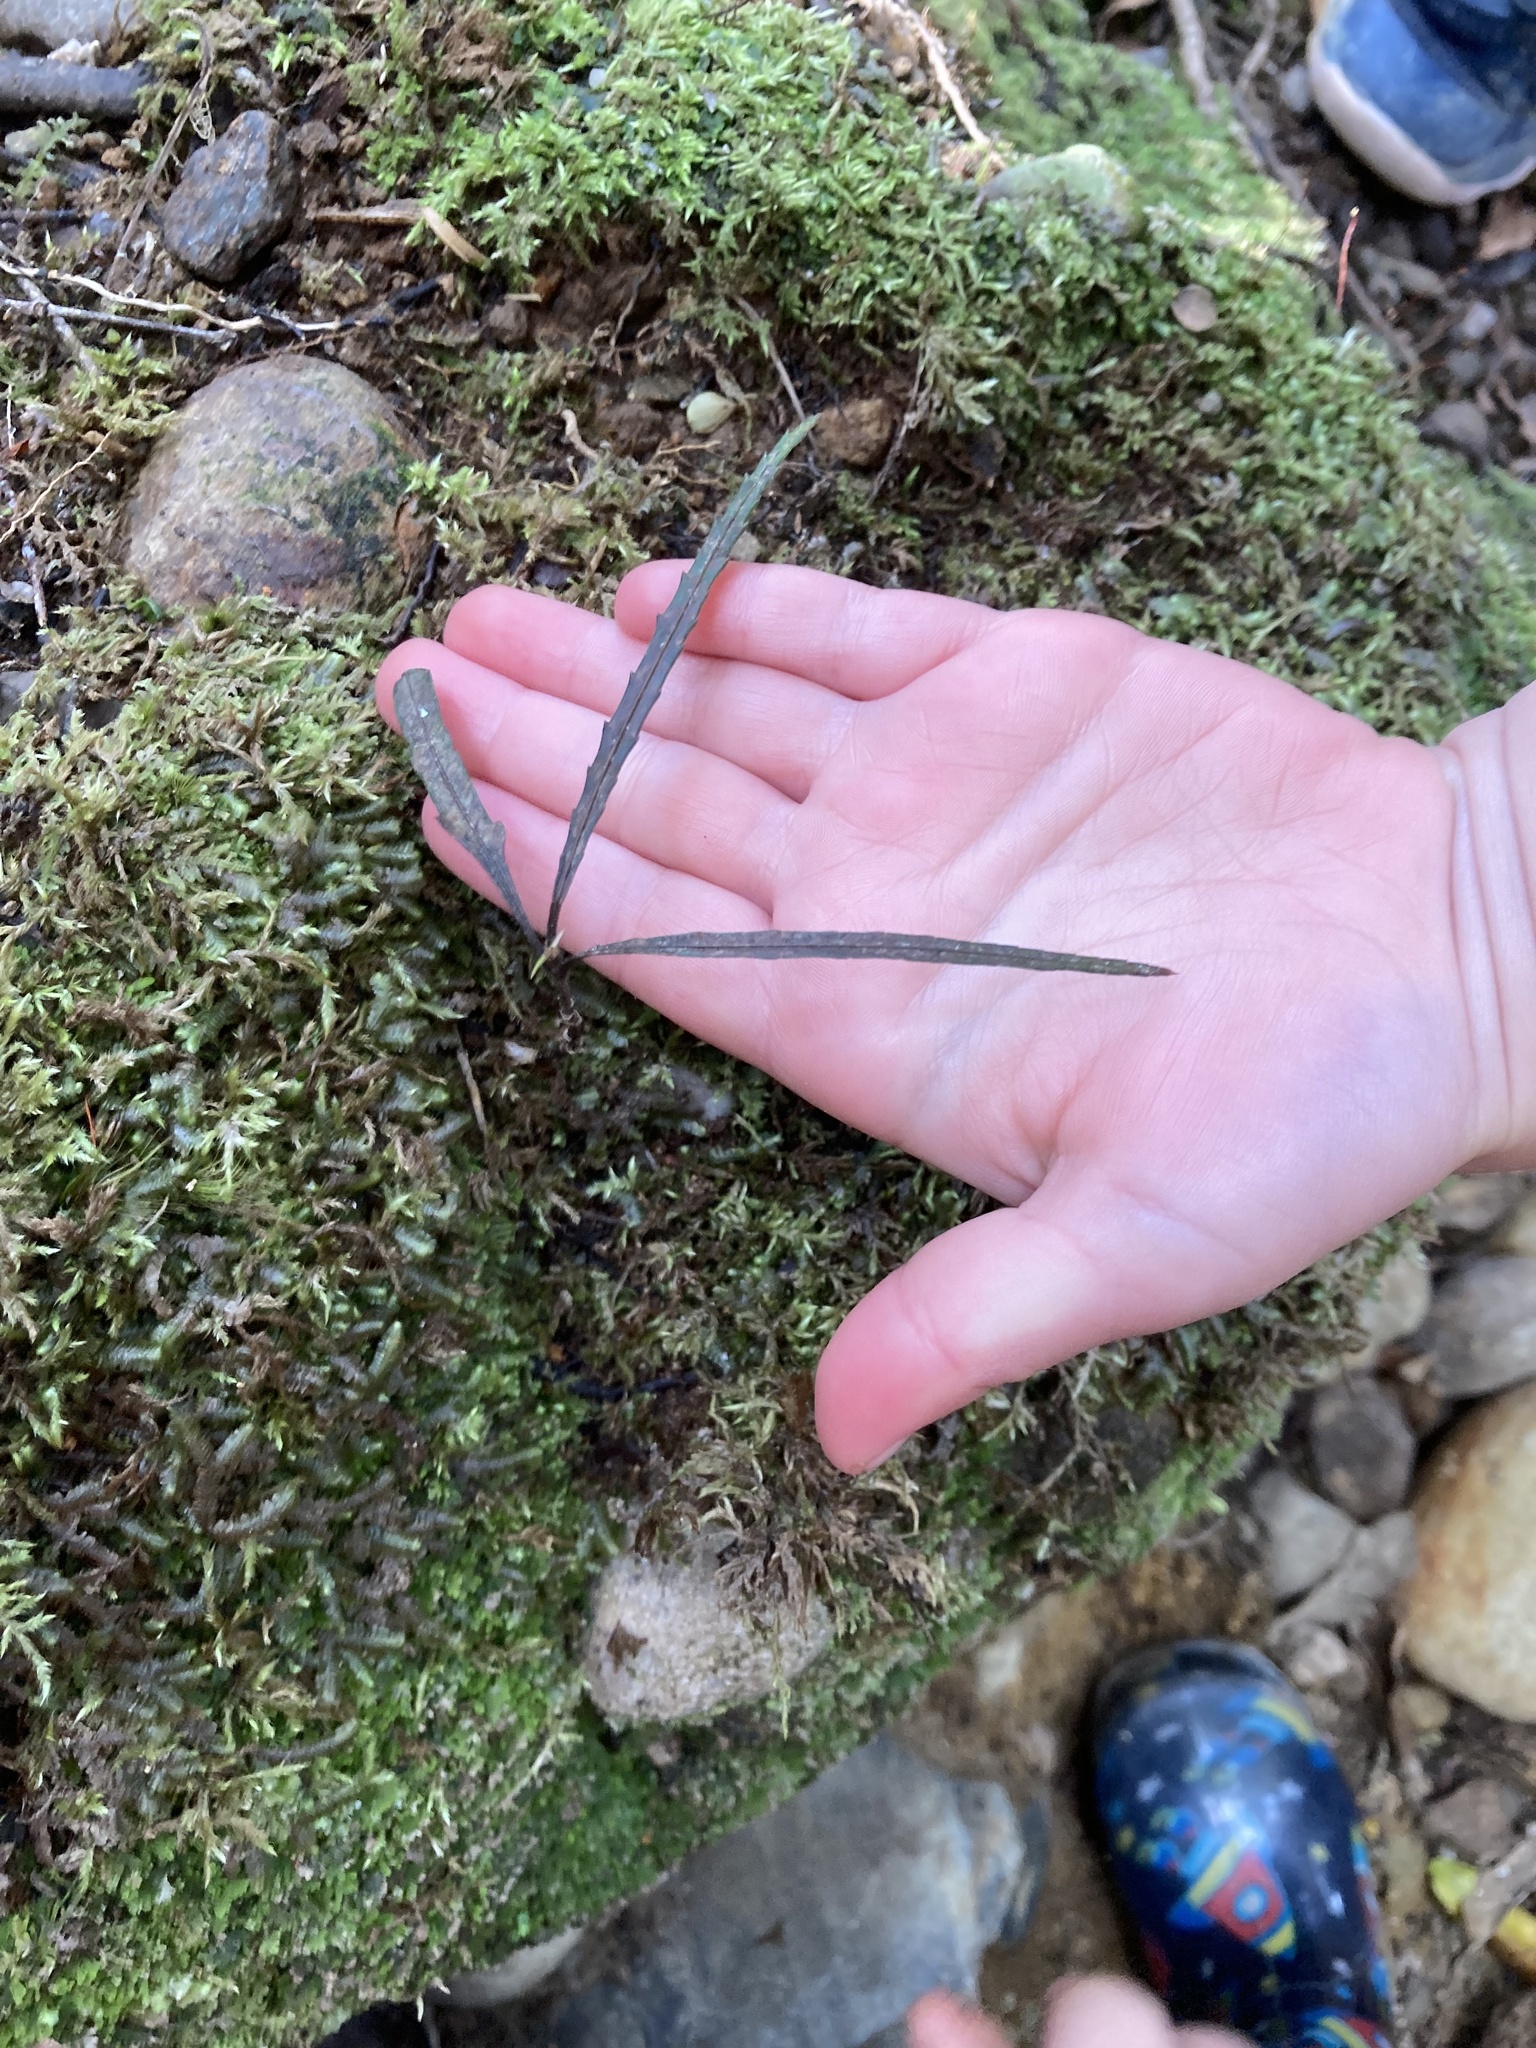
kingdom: Plantae
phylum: Tracheophyta
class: Magnoliopsida
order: Apiales
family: Araliaceae
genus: Pseudopanax
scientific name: Pseudopanax crassifolius
